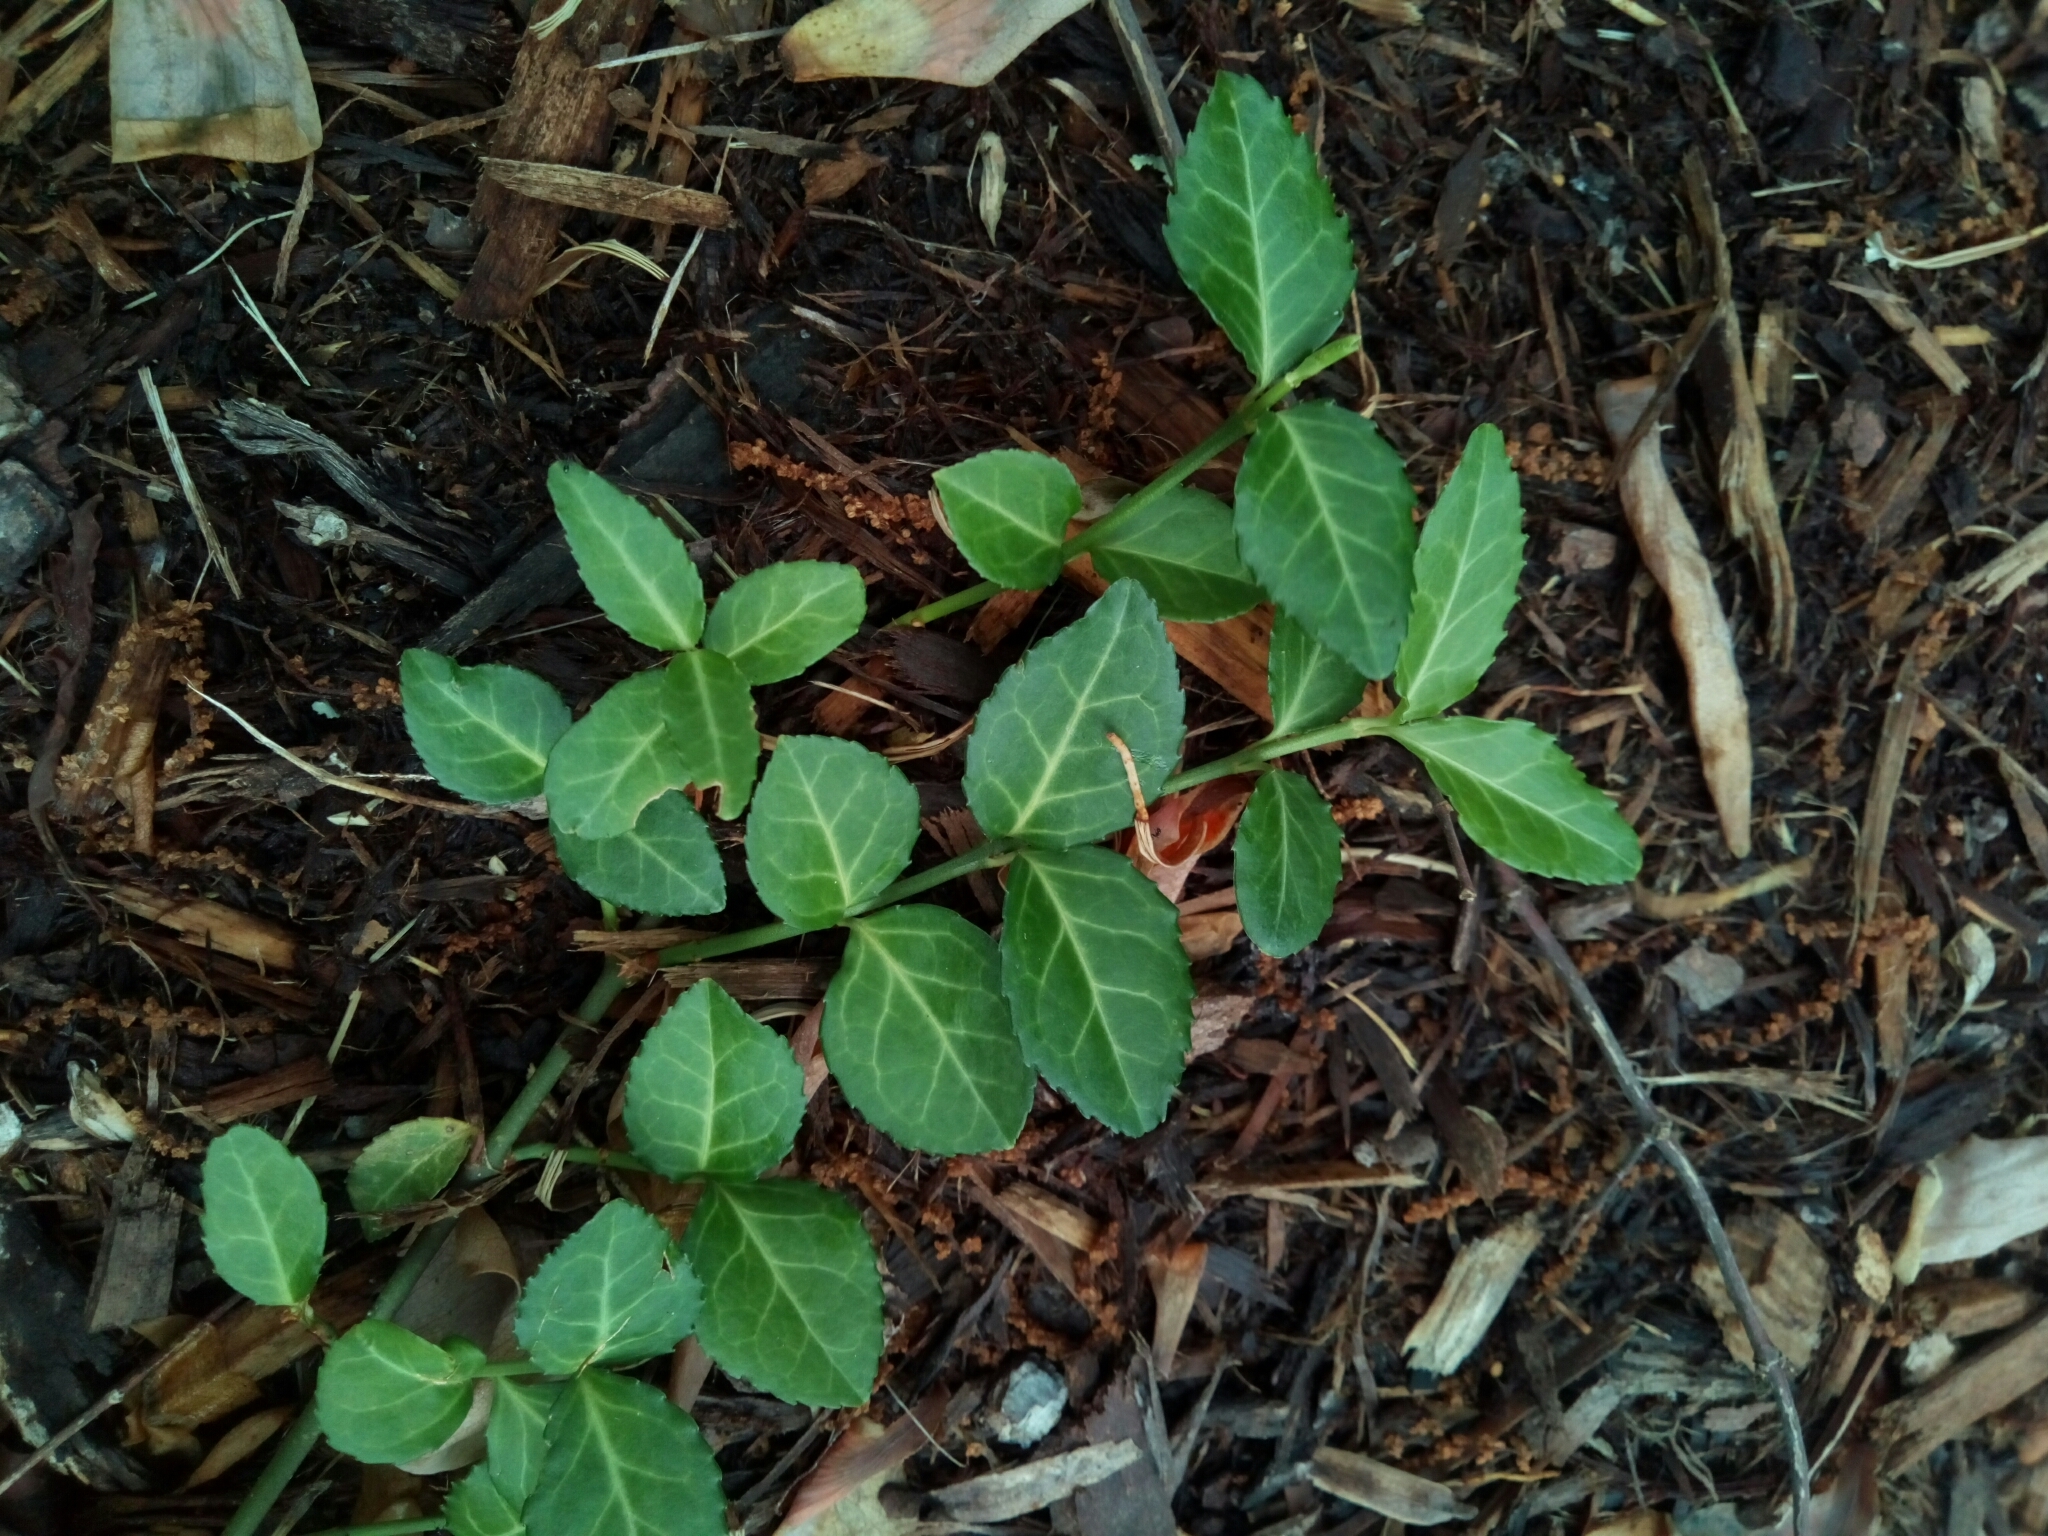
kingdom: Plantae
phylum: Tracheophyta
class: Magnoliopsida
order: Celastrales
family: Celastraceae
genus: Euonymus
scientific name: Euonymus fortunei
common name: Climbing euonymus
